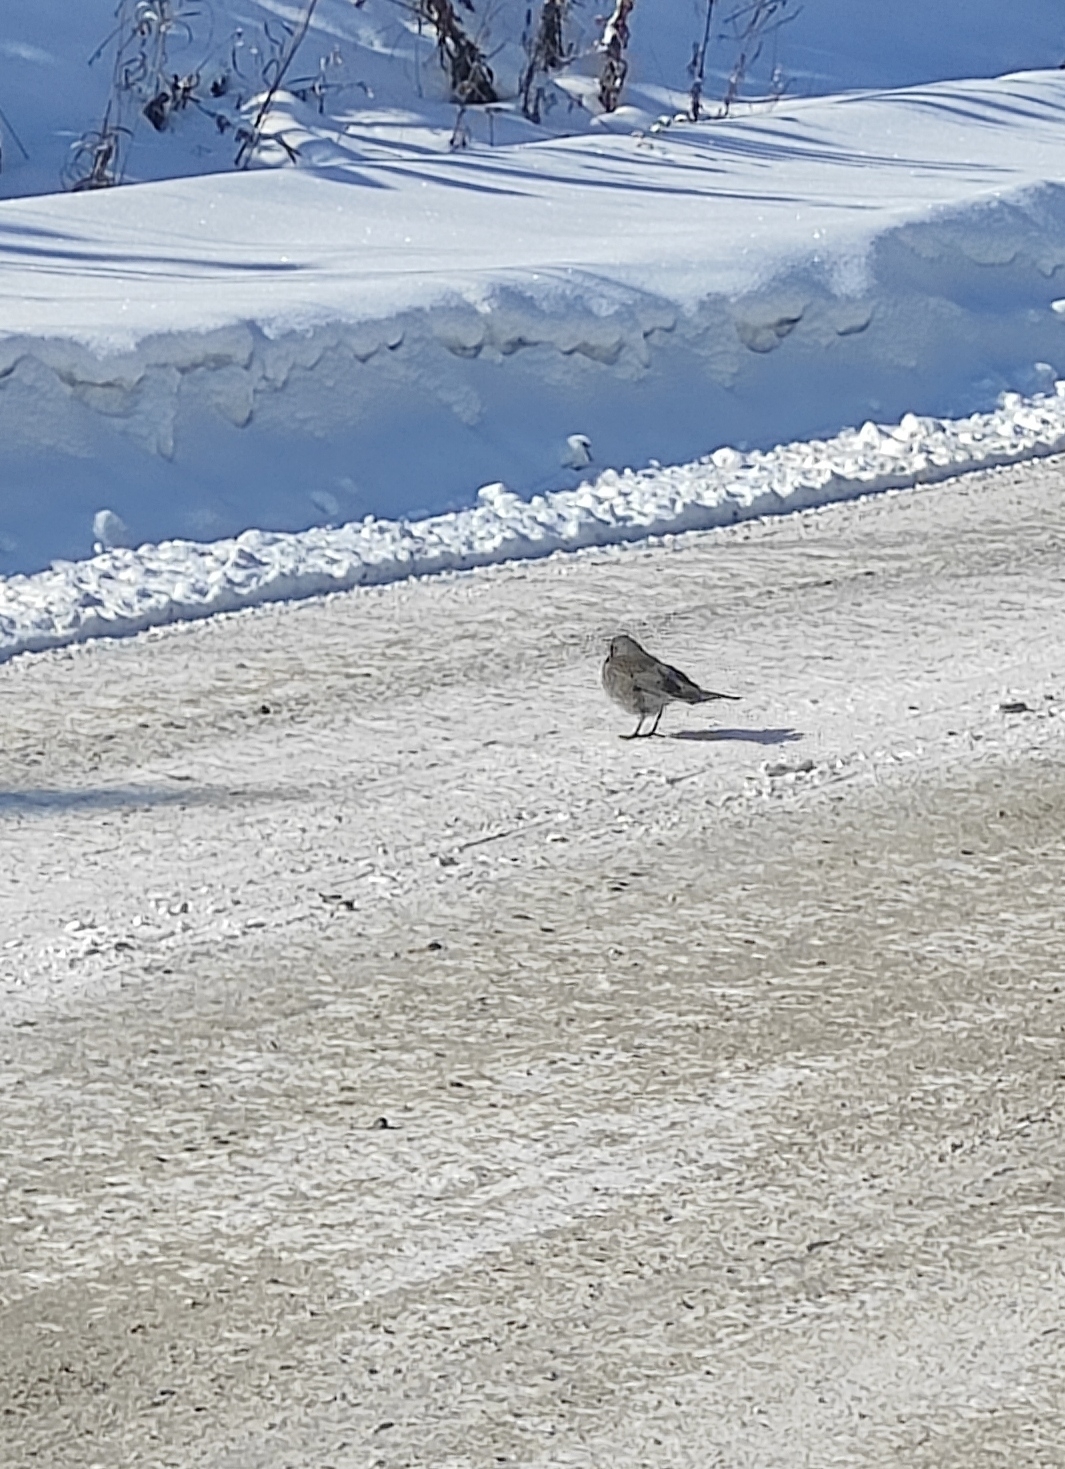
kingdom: Animalia
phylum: Chordata
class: Aves
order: Passeriformes
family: Turdidae
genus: Turdus
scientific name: Turdus pilaris
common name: Fieldfare
